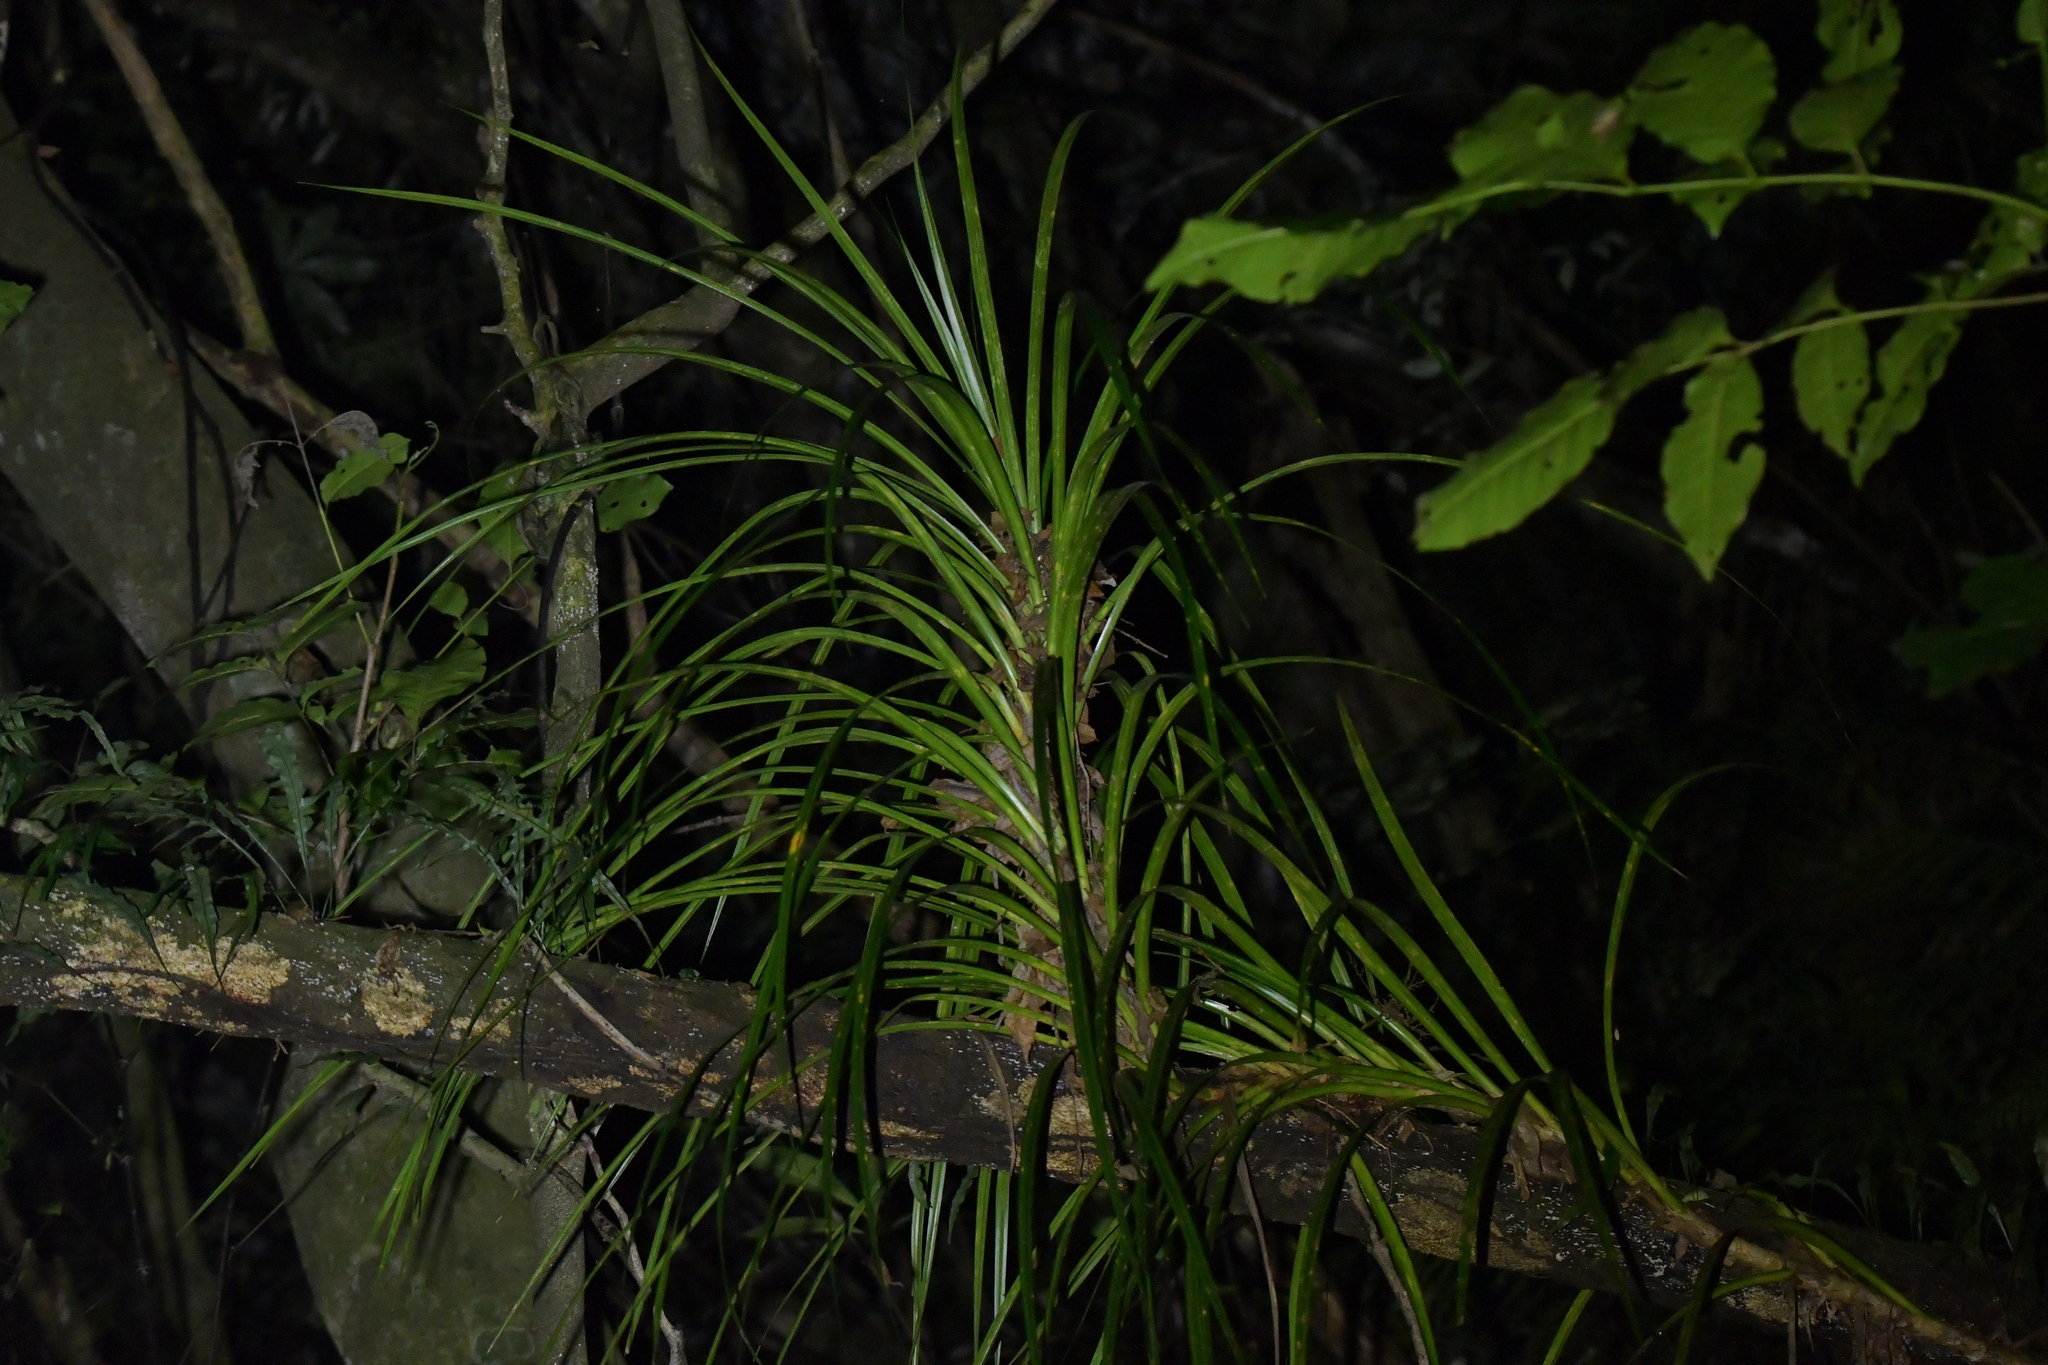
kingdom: Plantae
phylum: Tracheophyta
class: Liliopsida
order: Pandanales
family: Pandanaceae
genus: Freycinetia
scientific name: Freycinetia banksii
